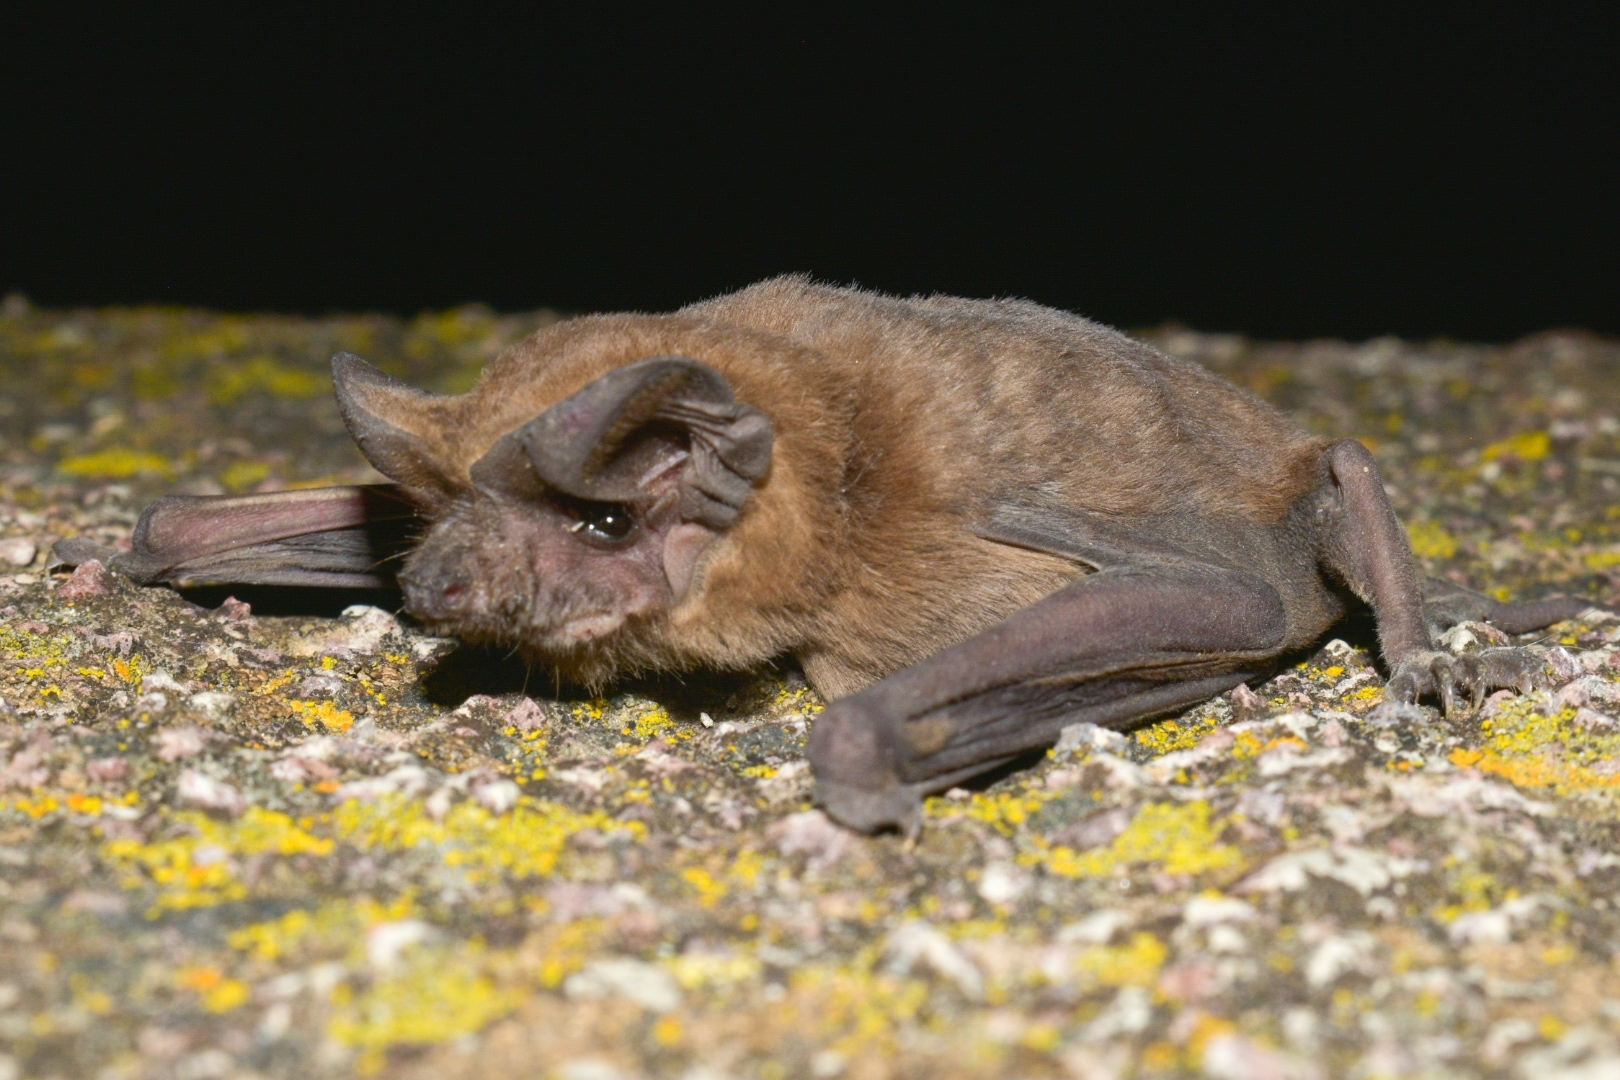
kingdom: Animalia
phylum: Chordata
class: Mammalia
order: Chiroptera
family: Molossidae
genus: Tadarida
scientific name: Tadarida brasiliensis
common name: Mexican free-tailed bat
